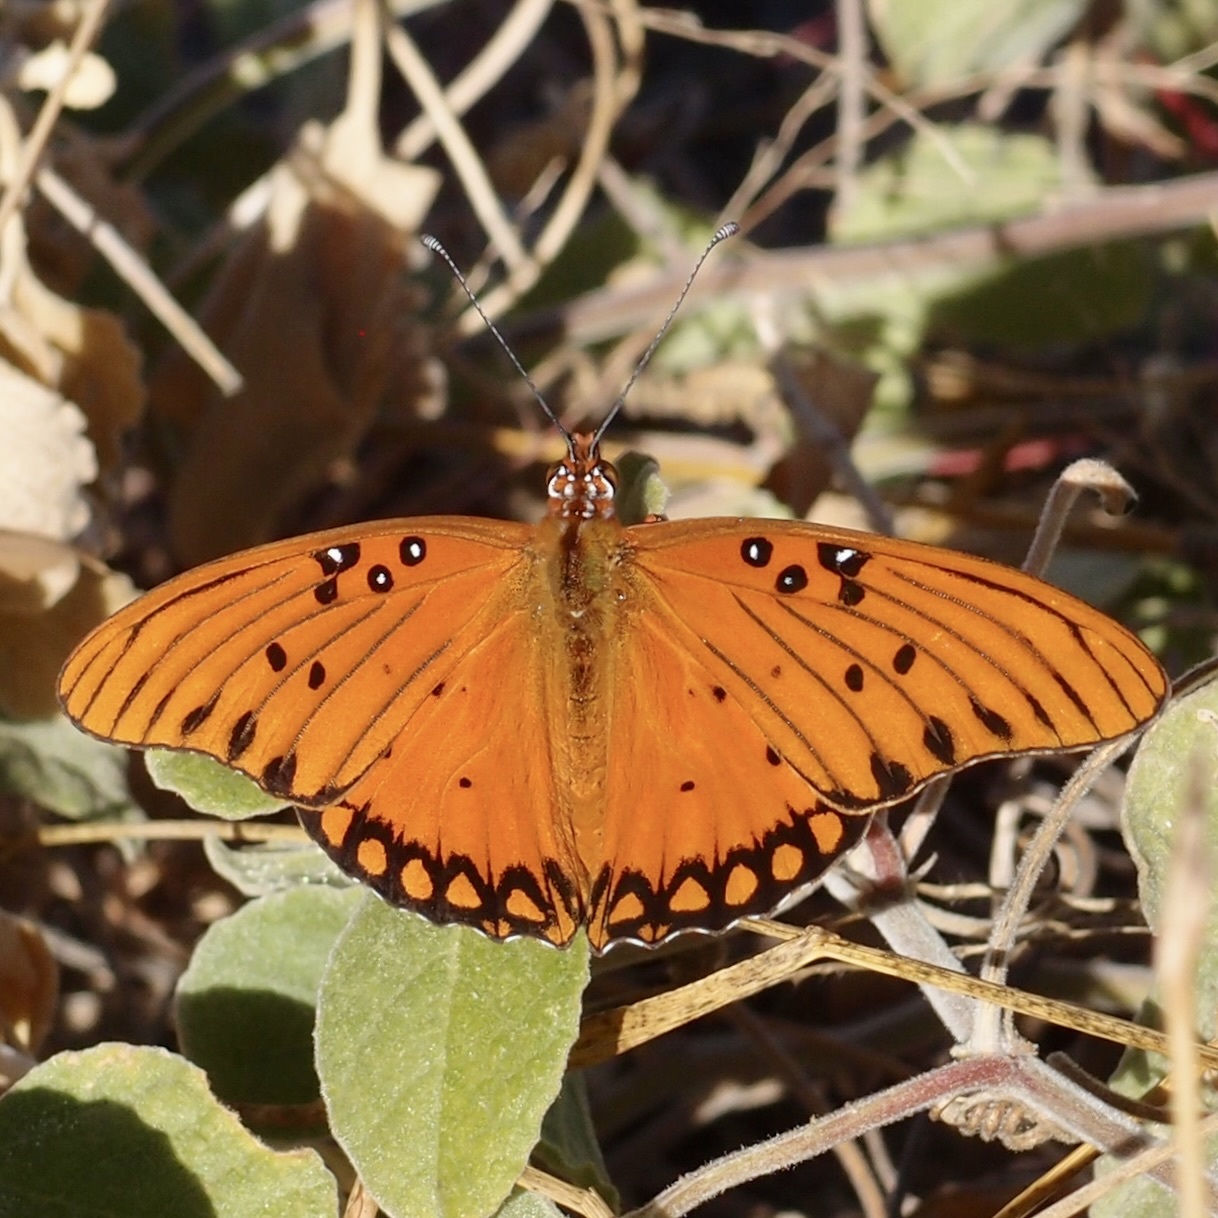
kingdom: Animalia
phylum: Arthropoda
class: Insecta
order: Lepidoptera
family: Nymphalidae
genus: Dione
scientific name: Dione vanillae
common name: Gulf fritillary
